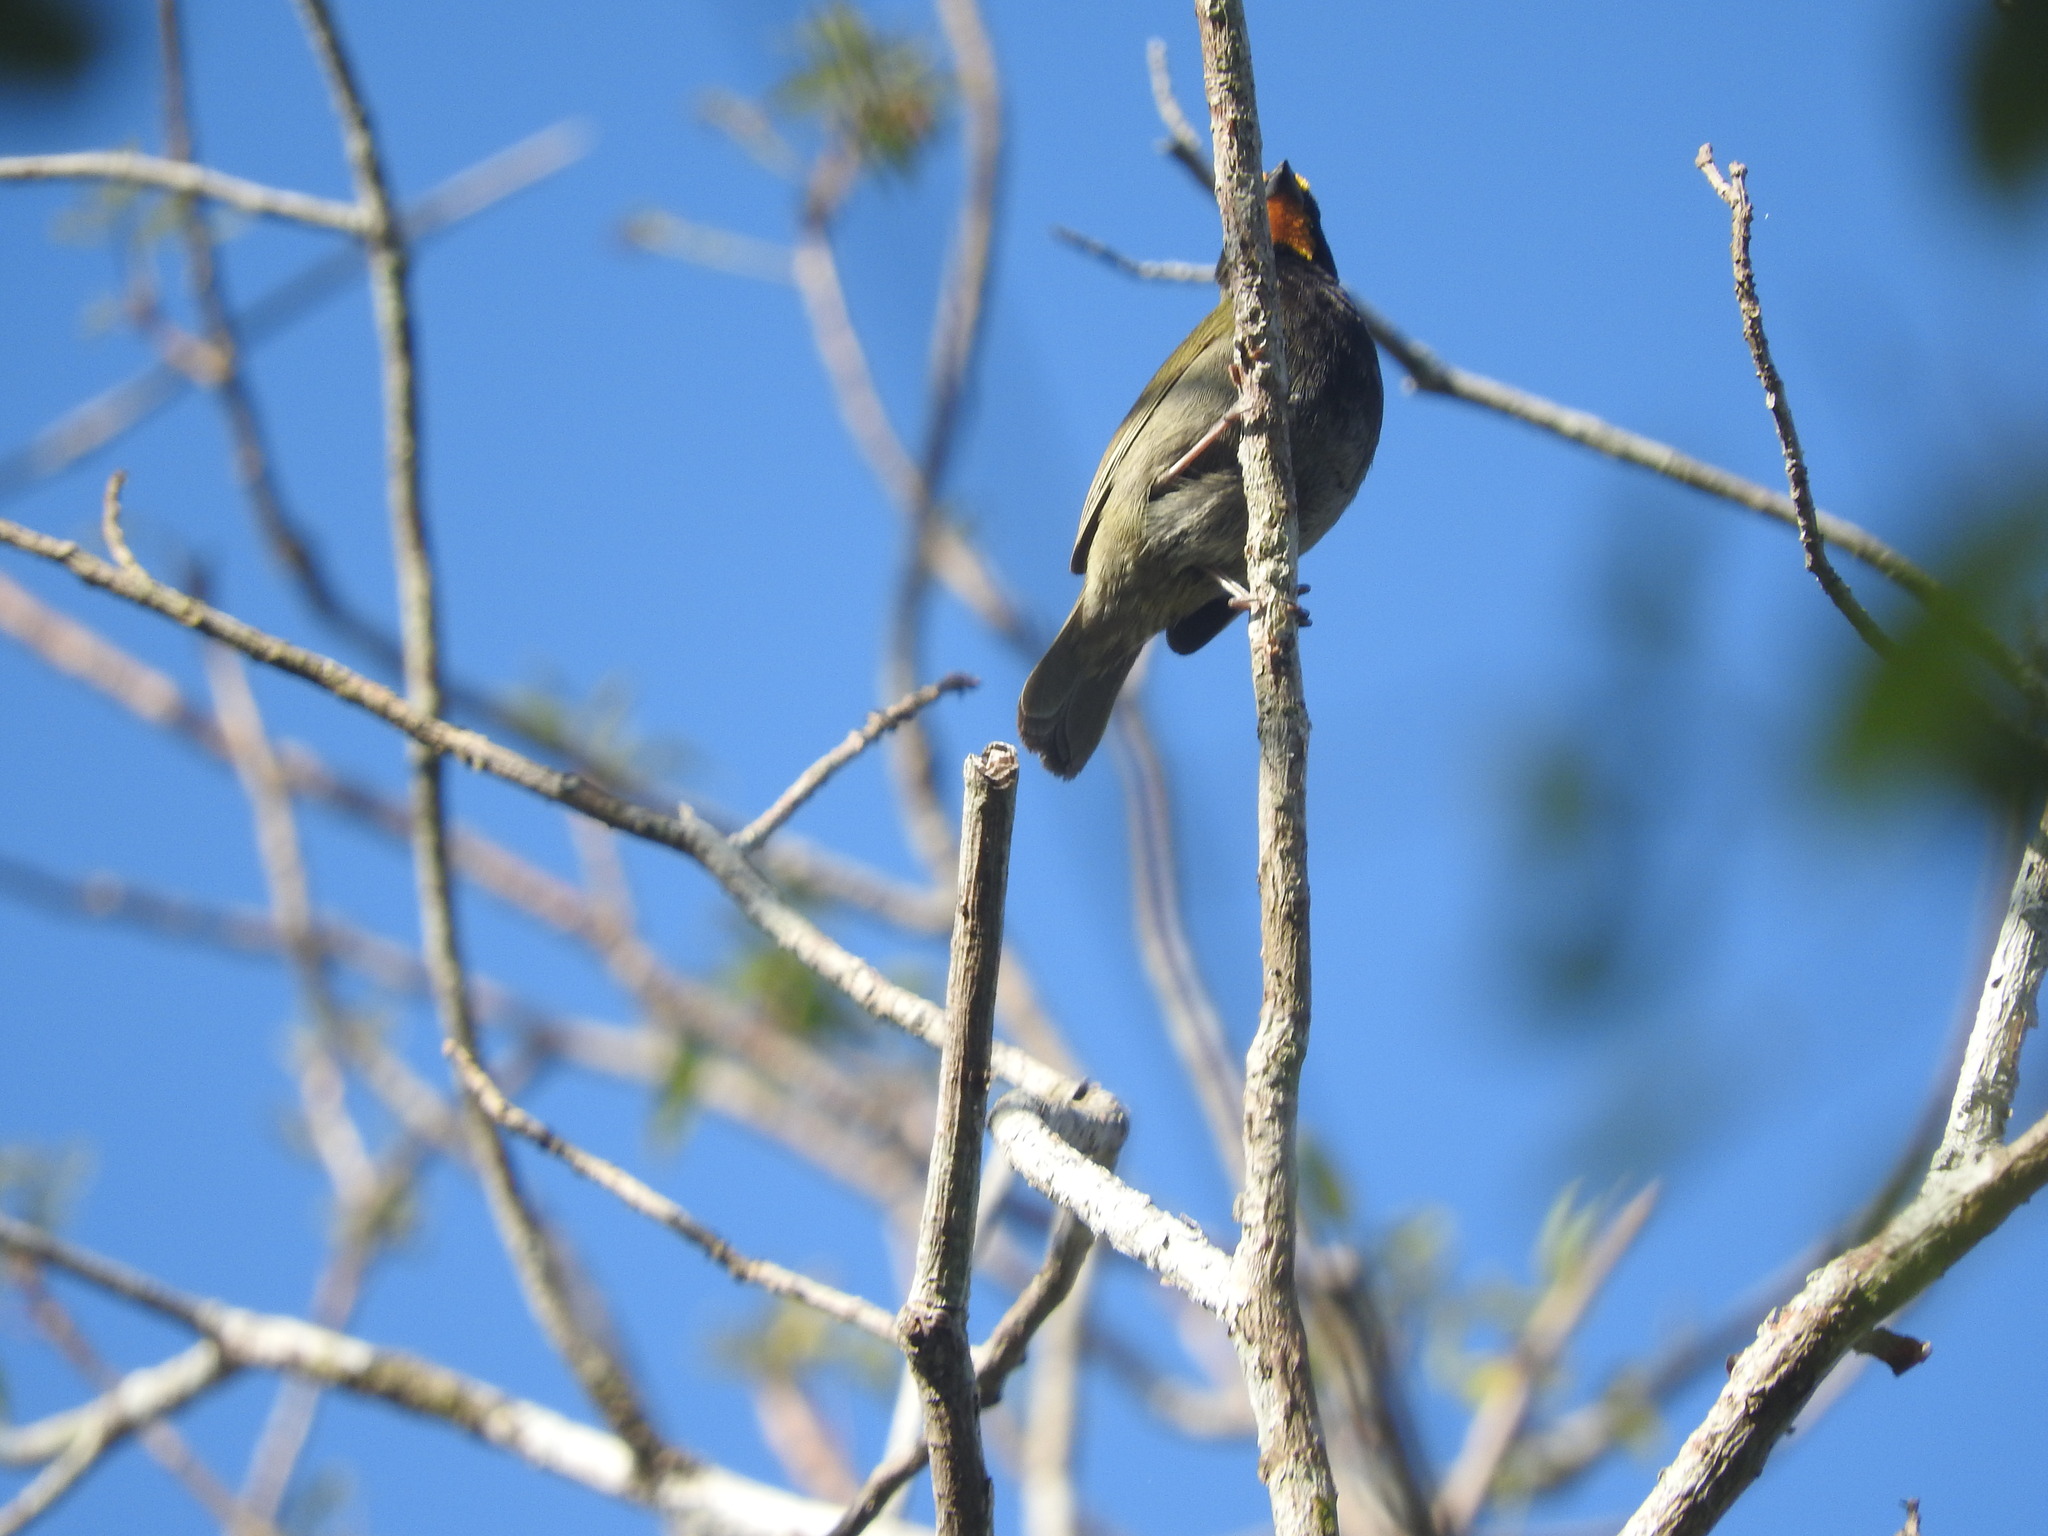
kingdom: Animalia
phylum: Chordata
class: Aves
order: Passeriformes
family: Thraupidae
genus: Tiaris
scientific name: Tiaris olivaceus
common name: Yellow-faced grassquit
